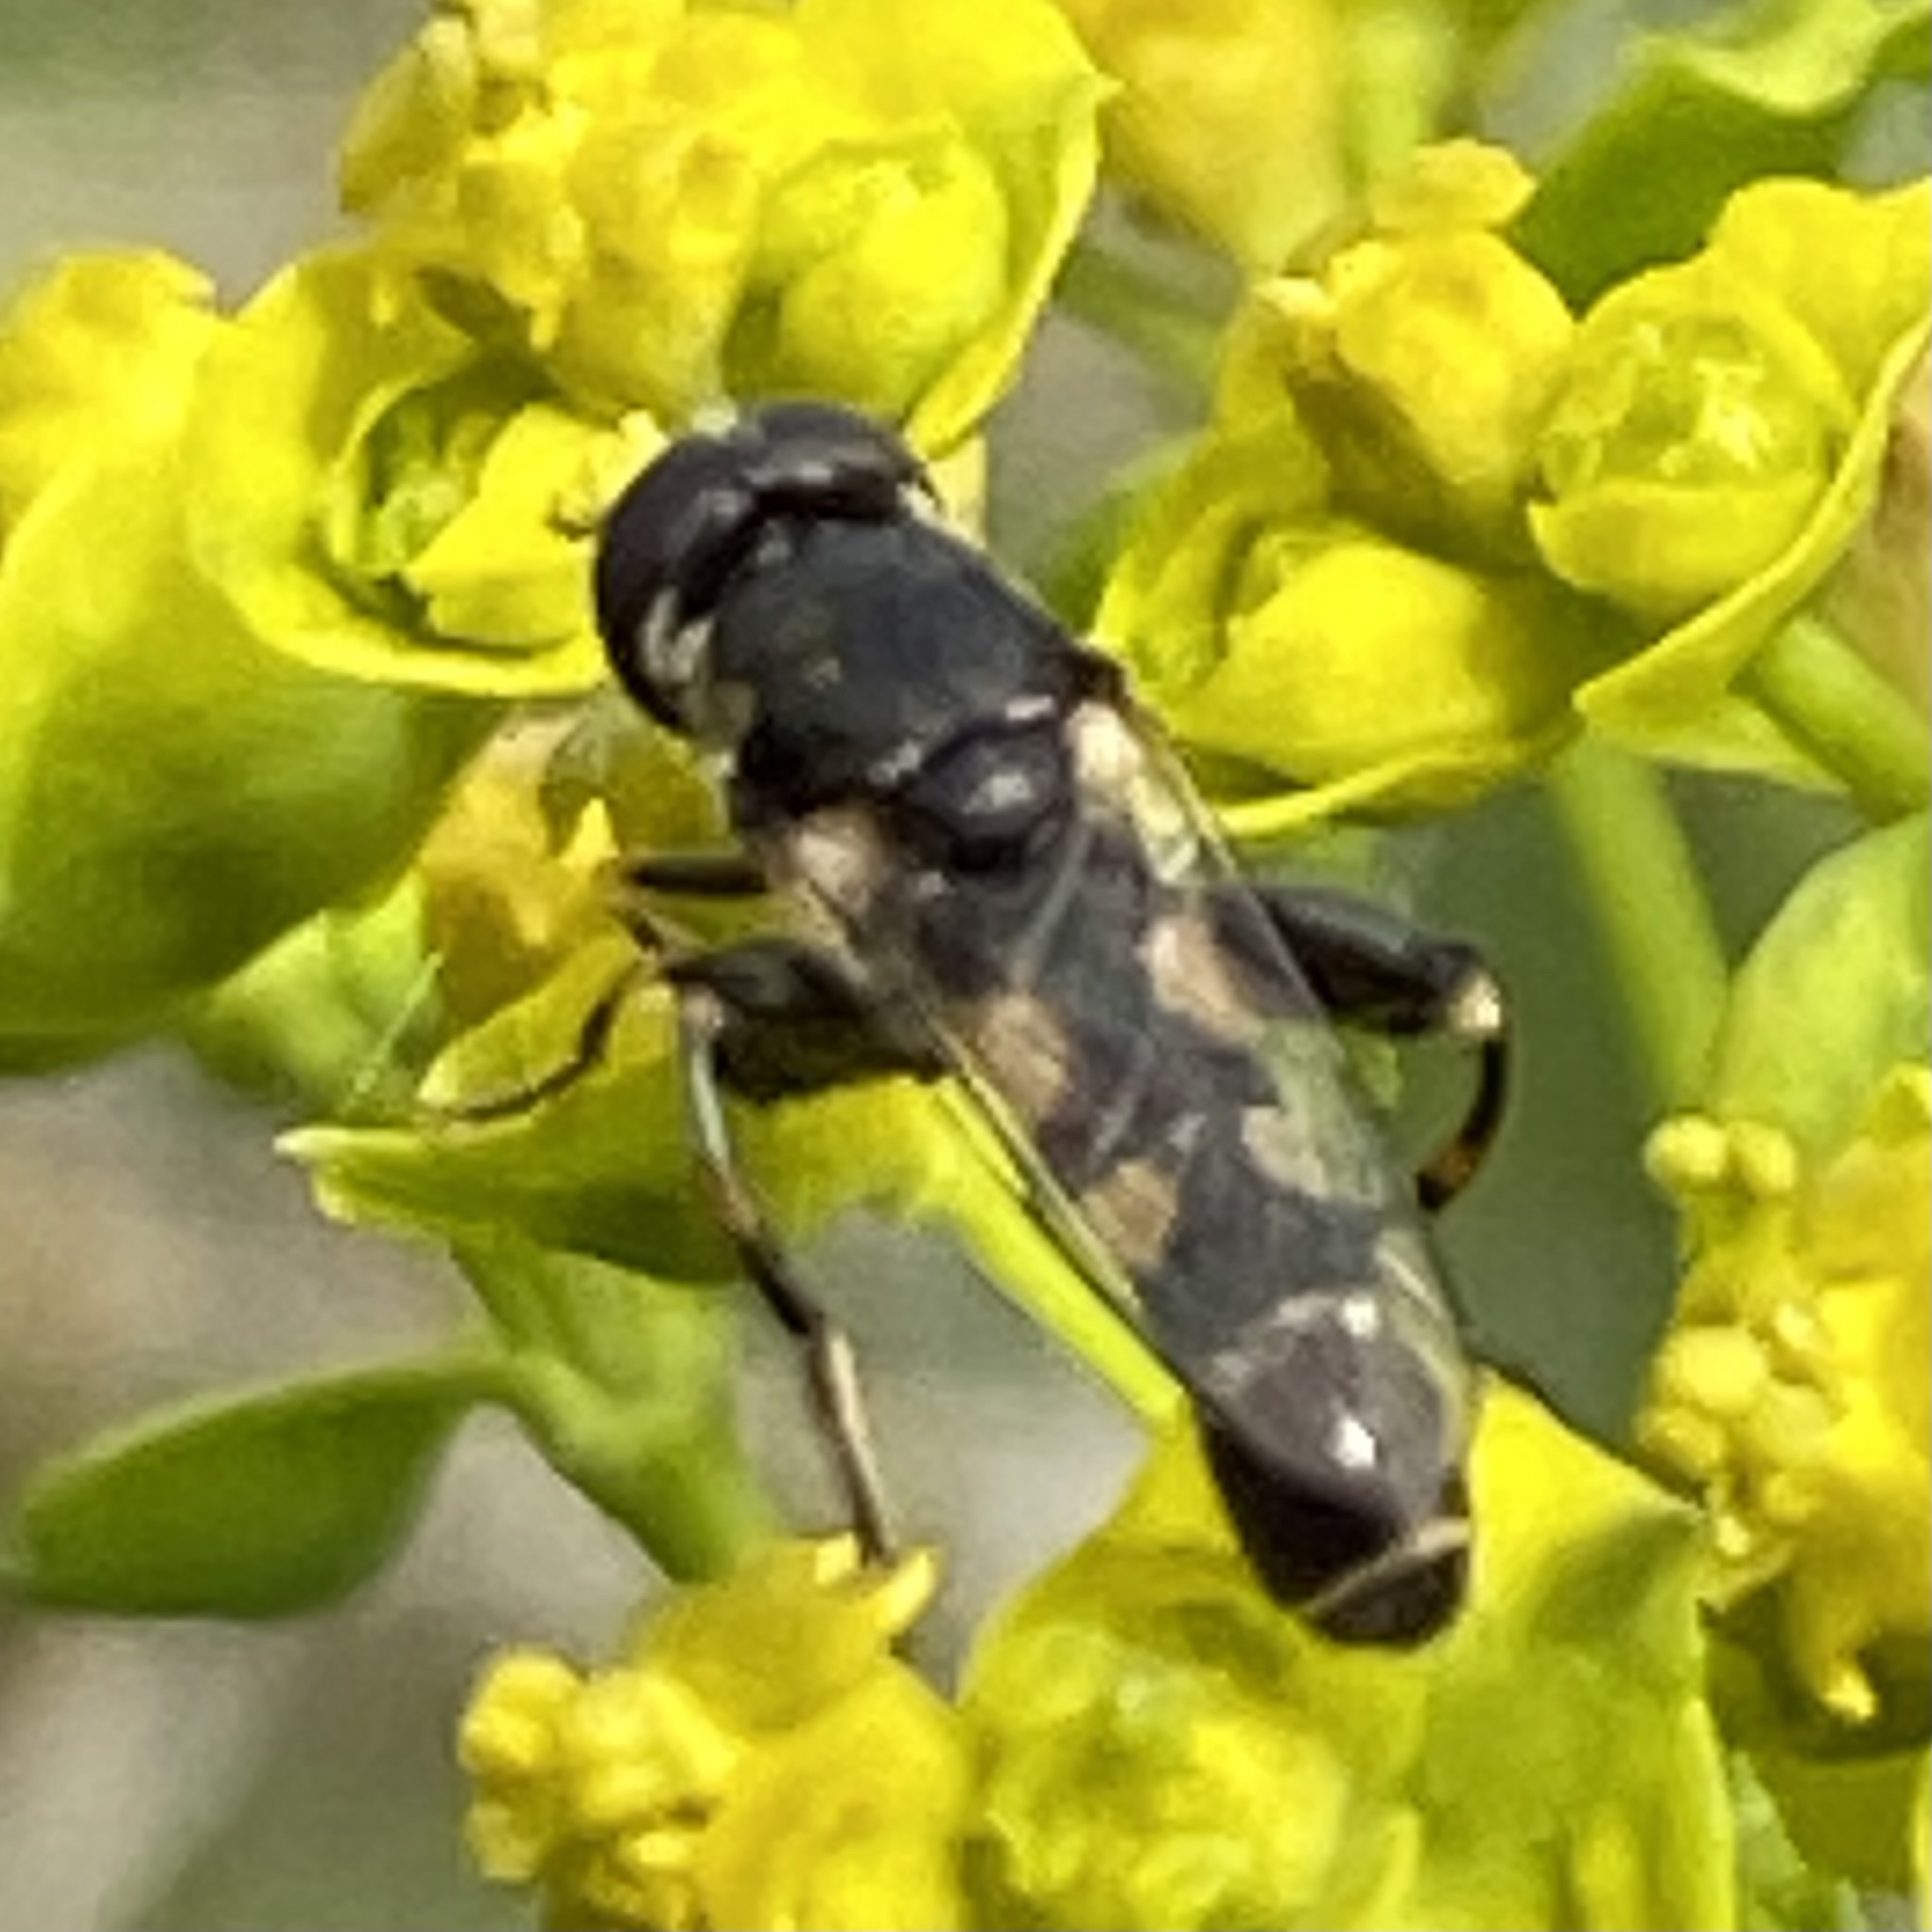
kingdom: Animalia
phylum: Arthropoda
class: Insecta
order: Diptera
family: Syrphidae
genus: Syritta
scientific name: Syritta pipiens
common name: Hover fly
